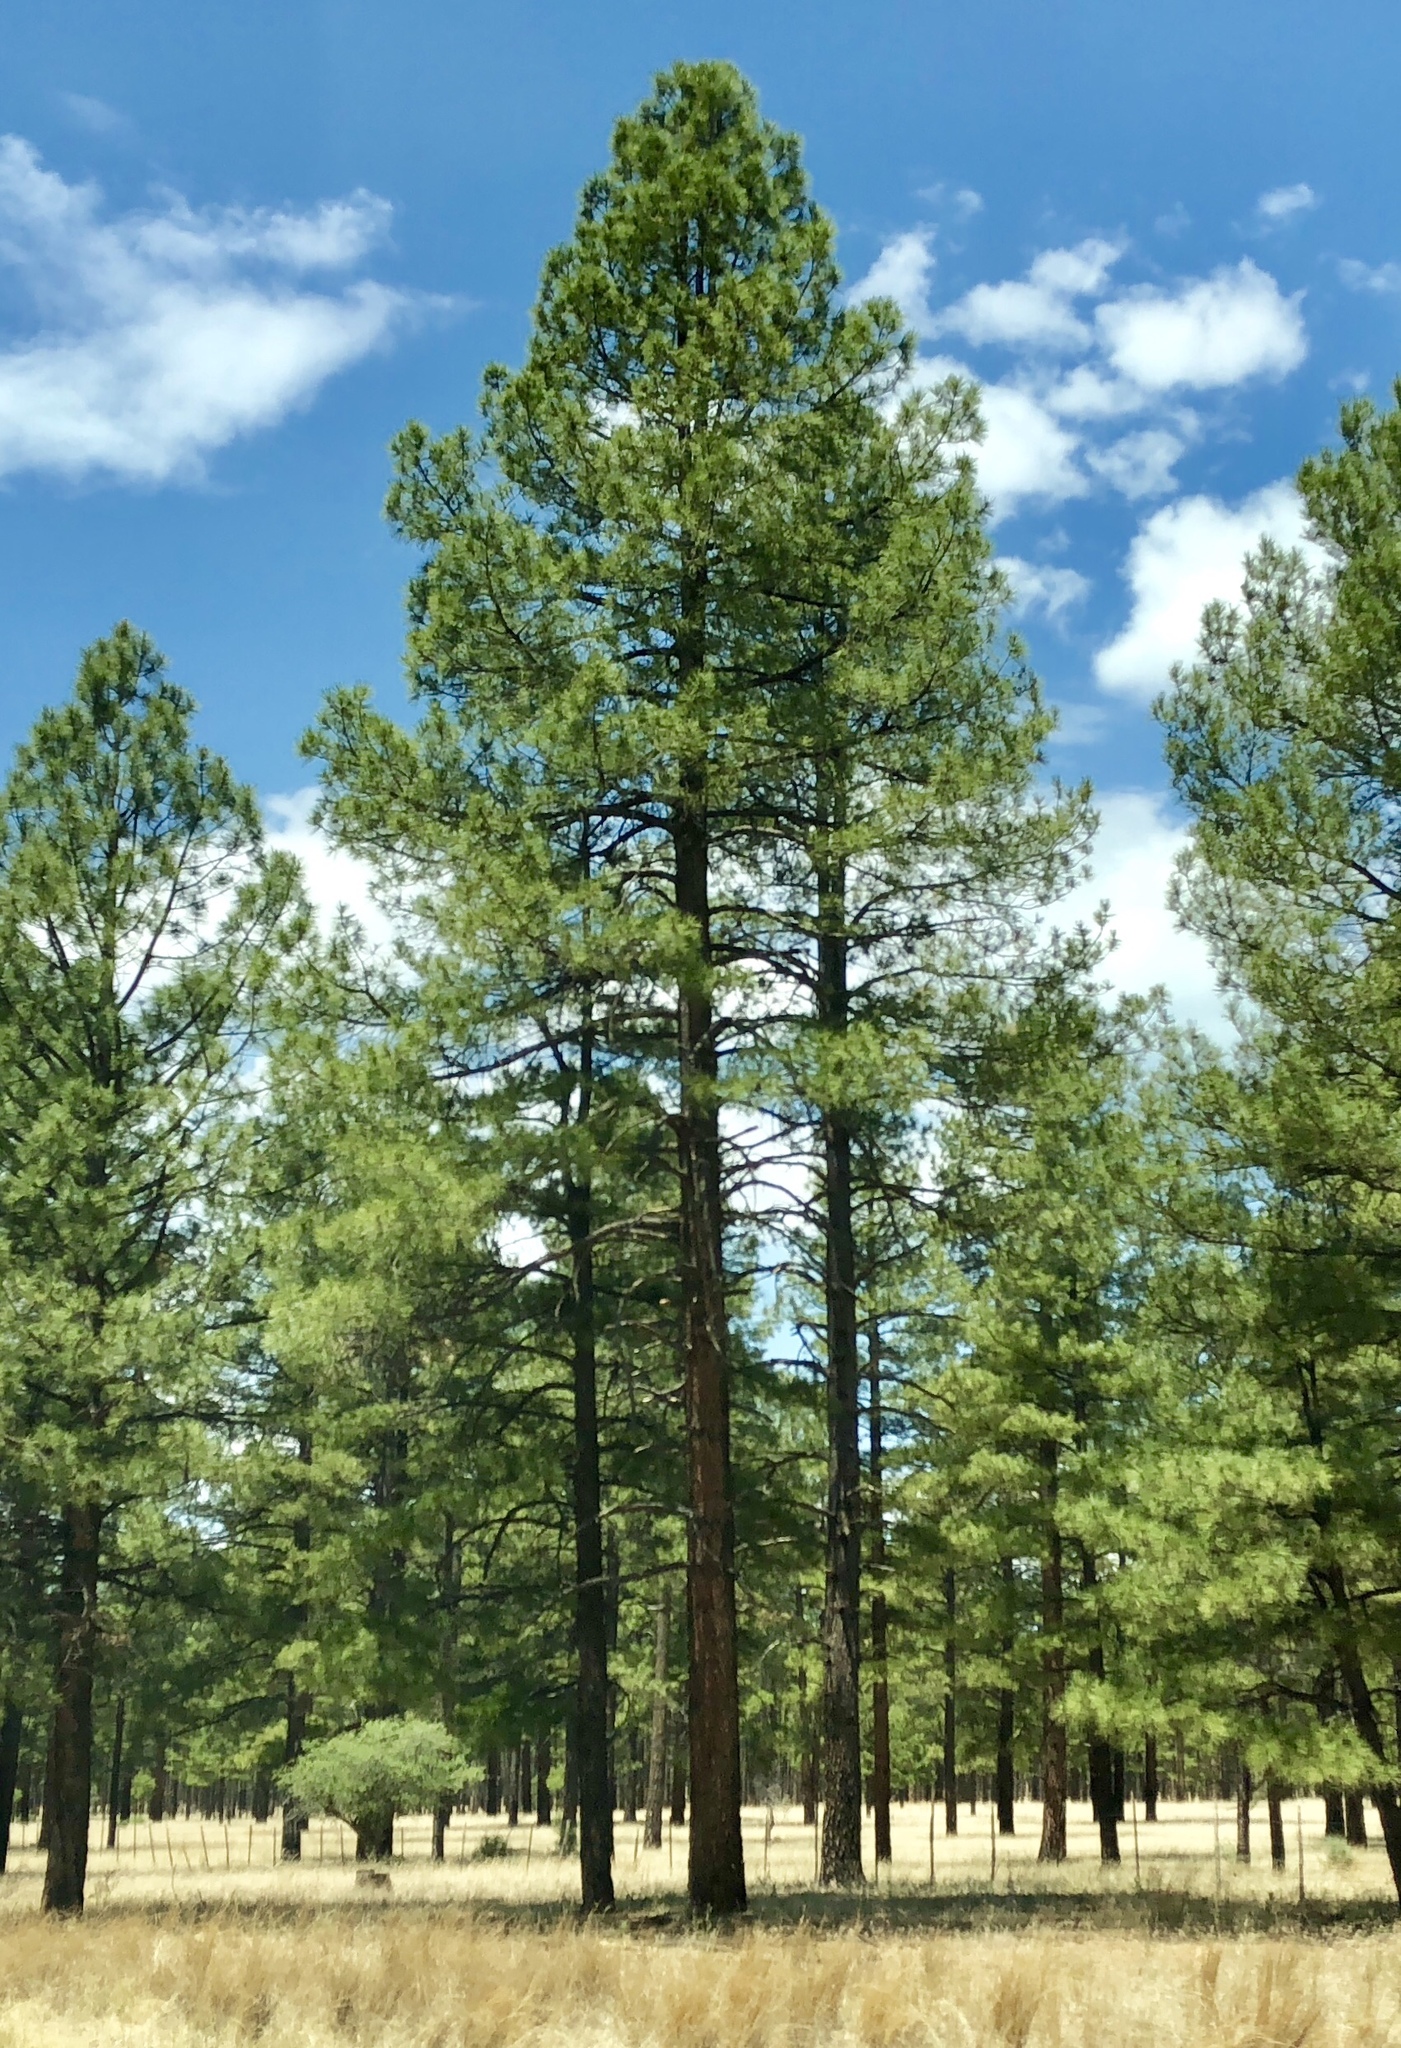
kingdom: Plantae
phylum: Tracheophyta
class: Pinopsida
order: Pinales
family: Pinaceae
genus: Pinus
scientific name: Pinus ponderosa
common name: Western yellow-pine
